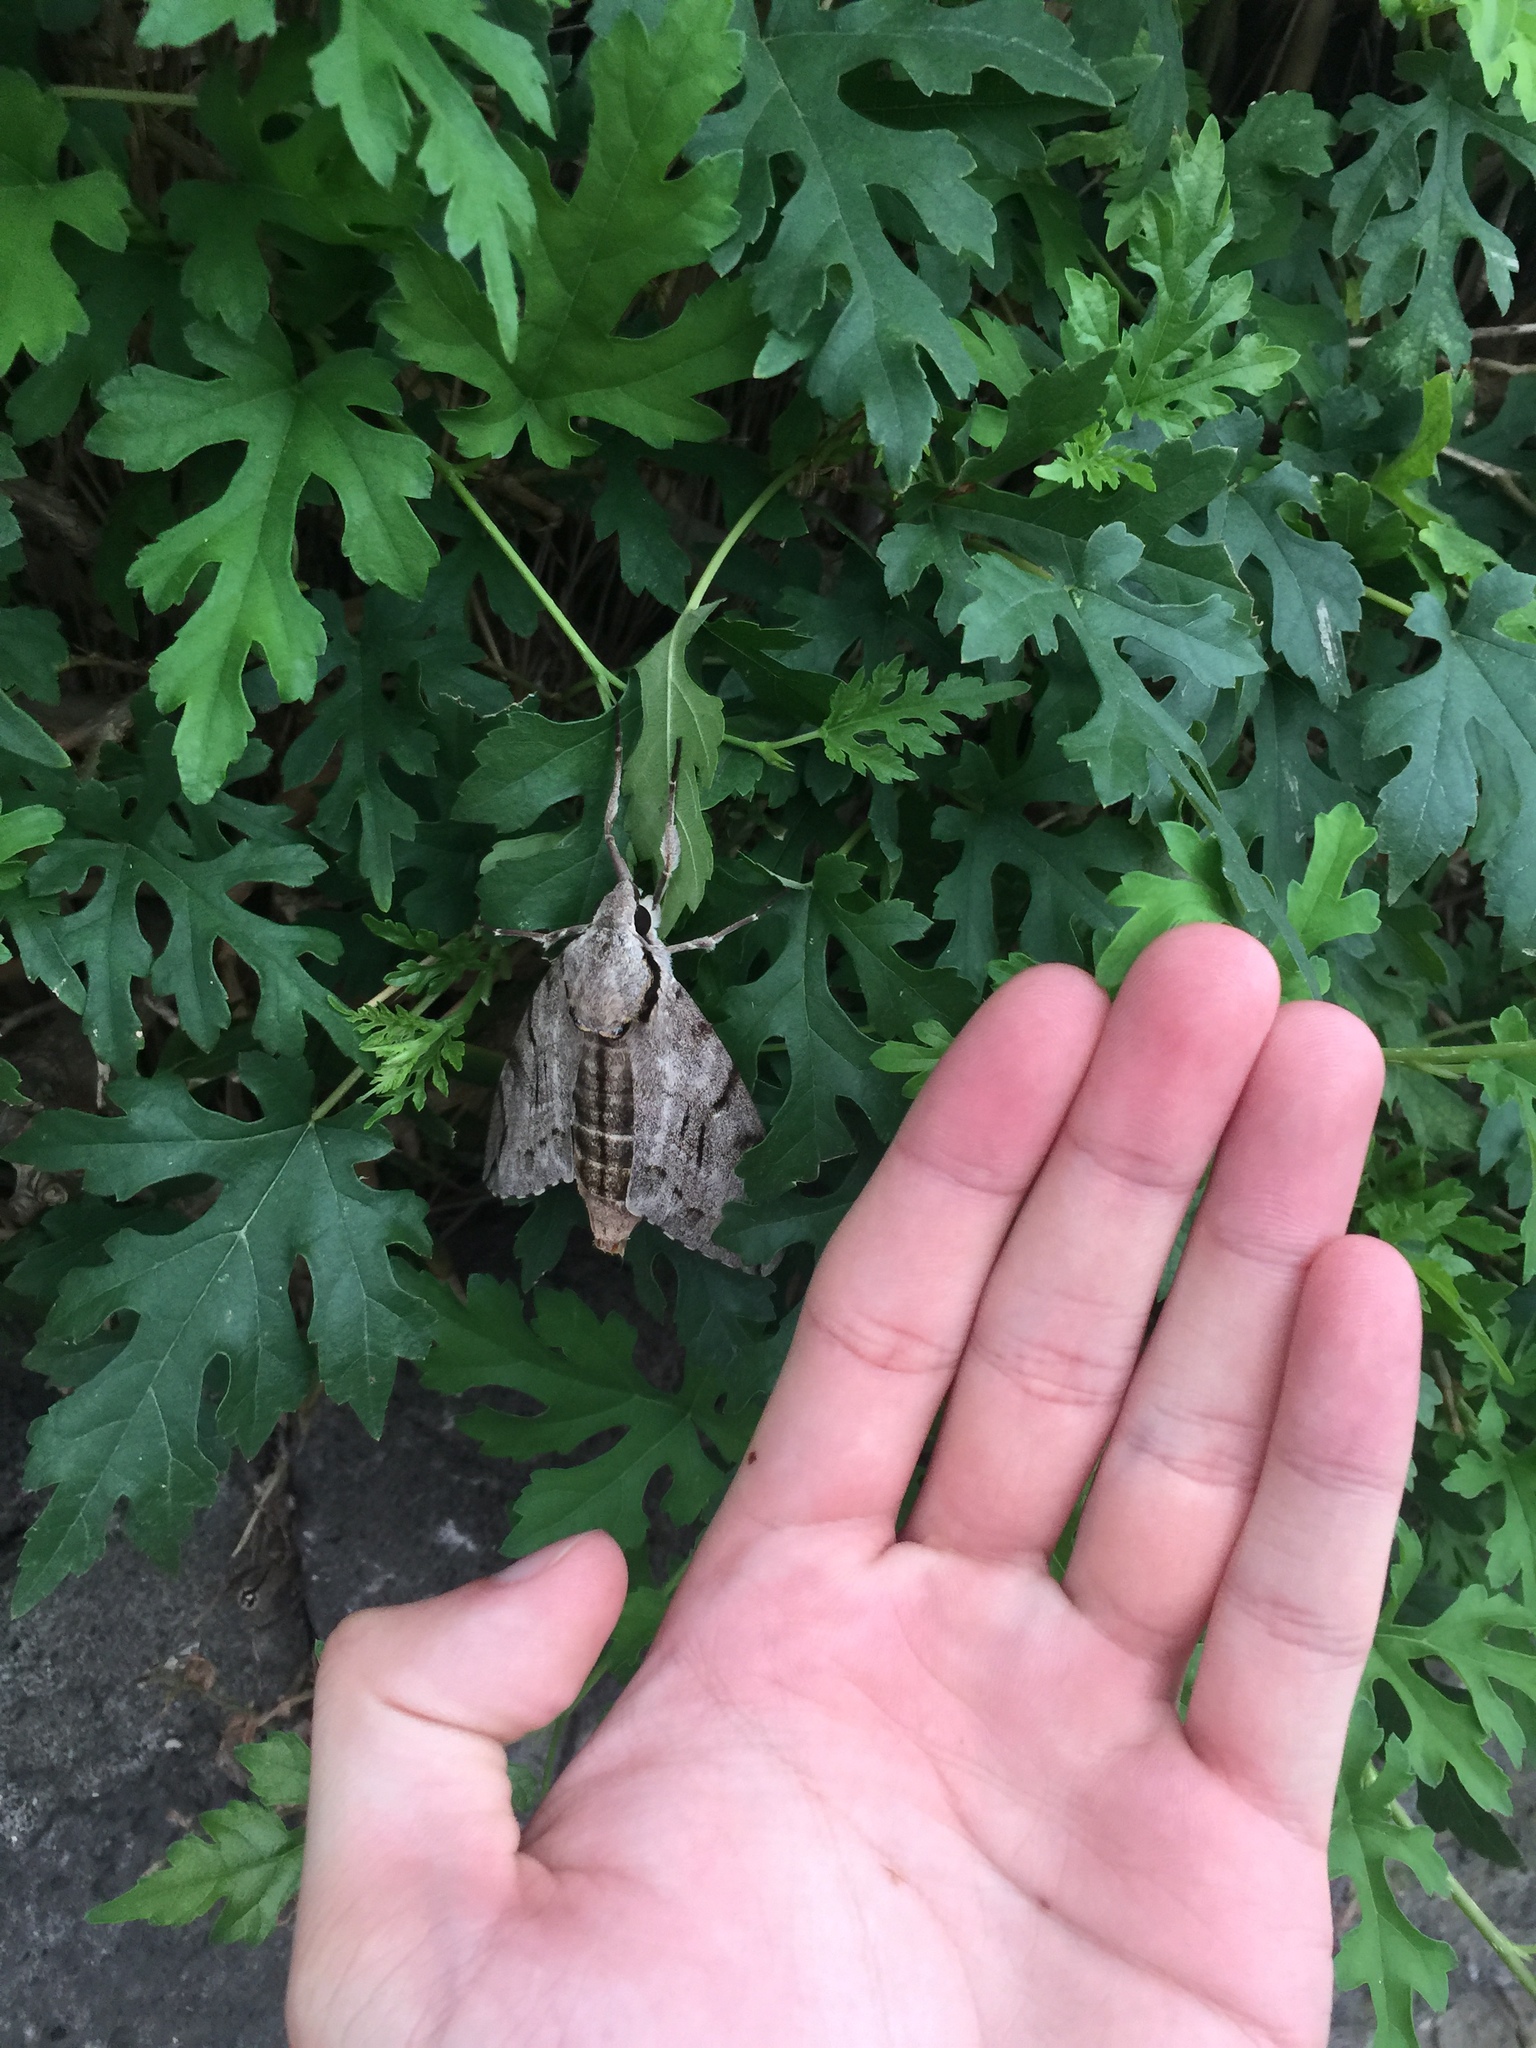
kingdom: Animalia
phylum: Arthropoda
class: Insecta
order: Lepidoptera
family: Sphingidae
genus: Psilogramma
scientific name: Psilogramma increta
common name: Gray hawk moth
